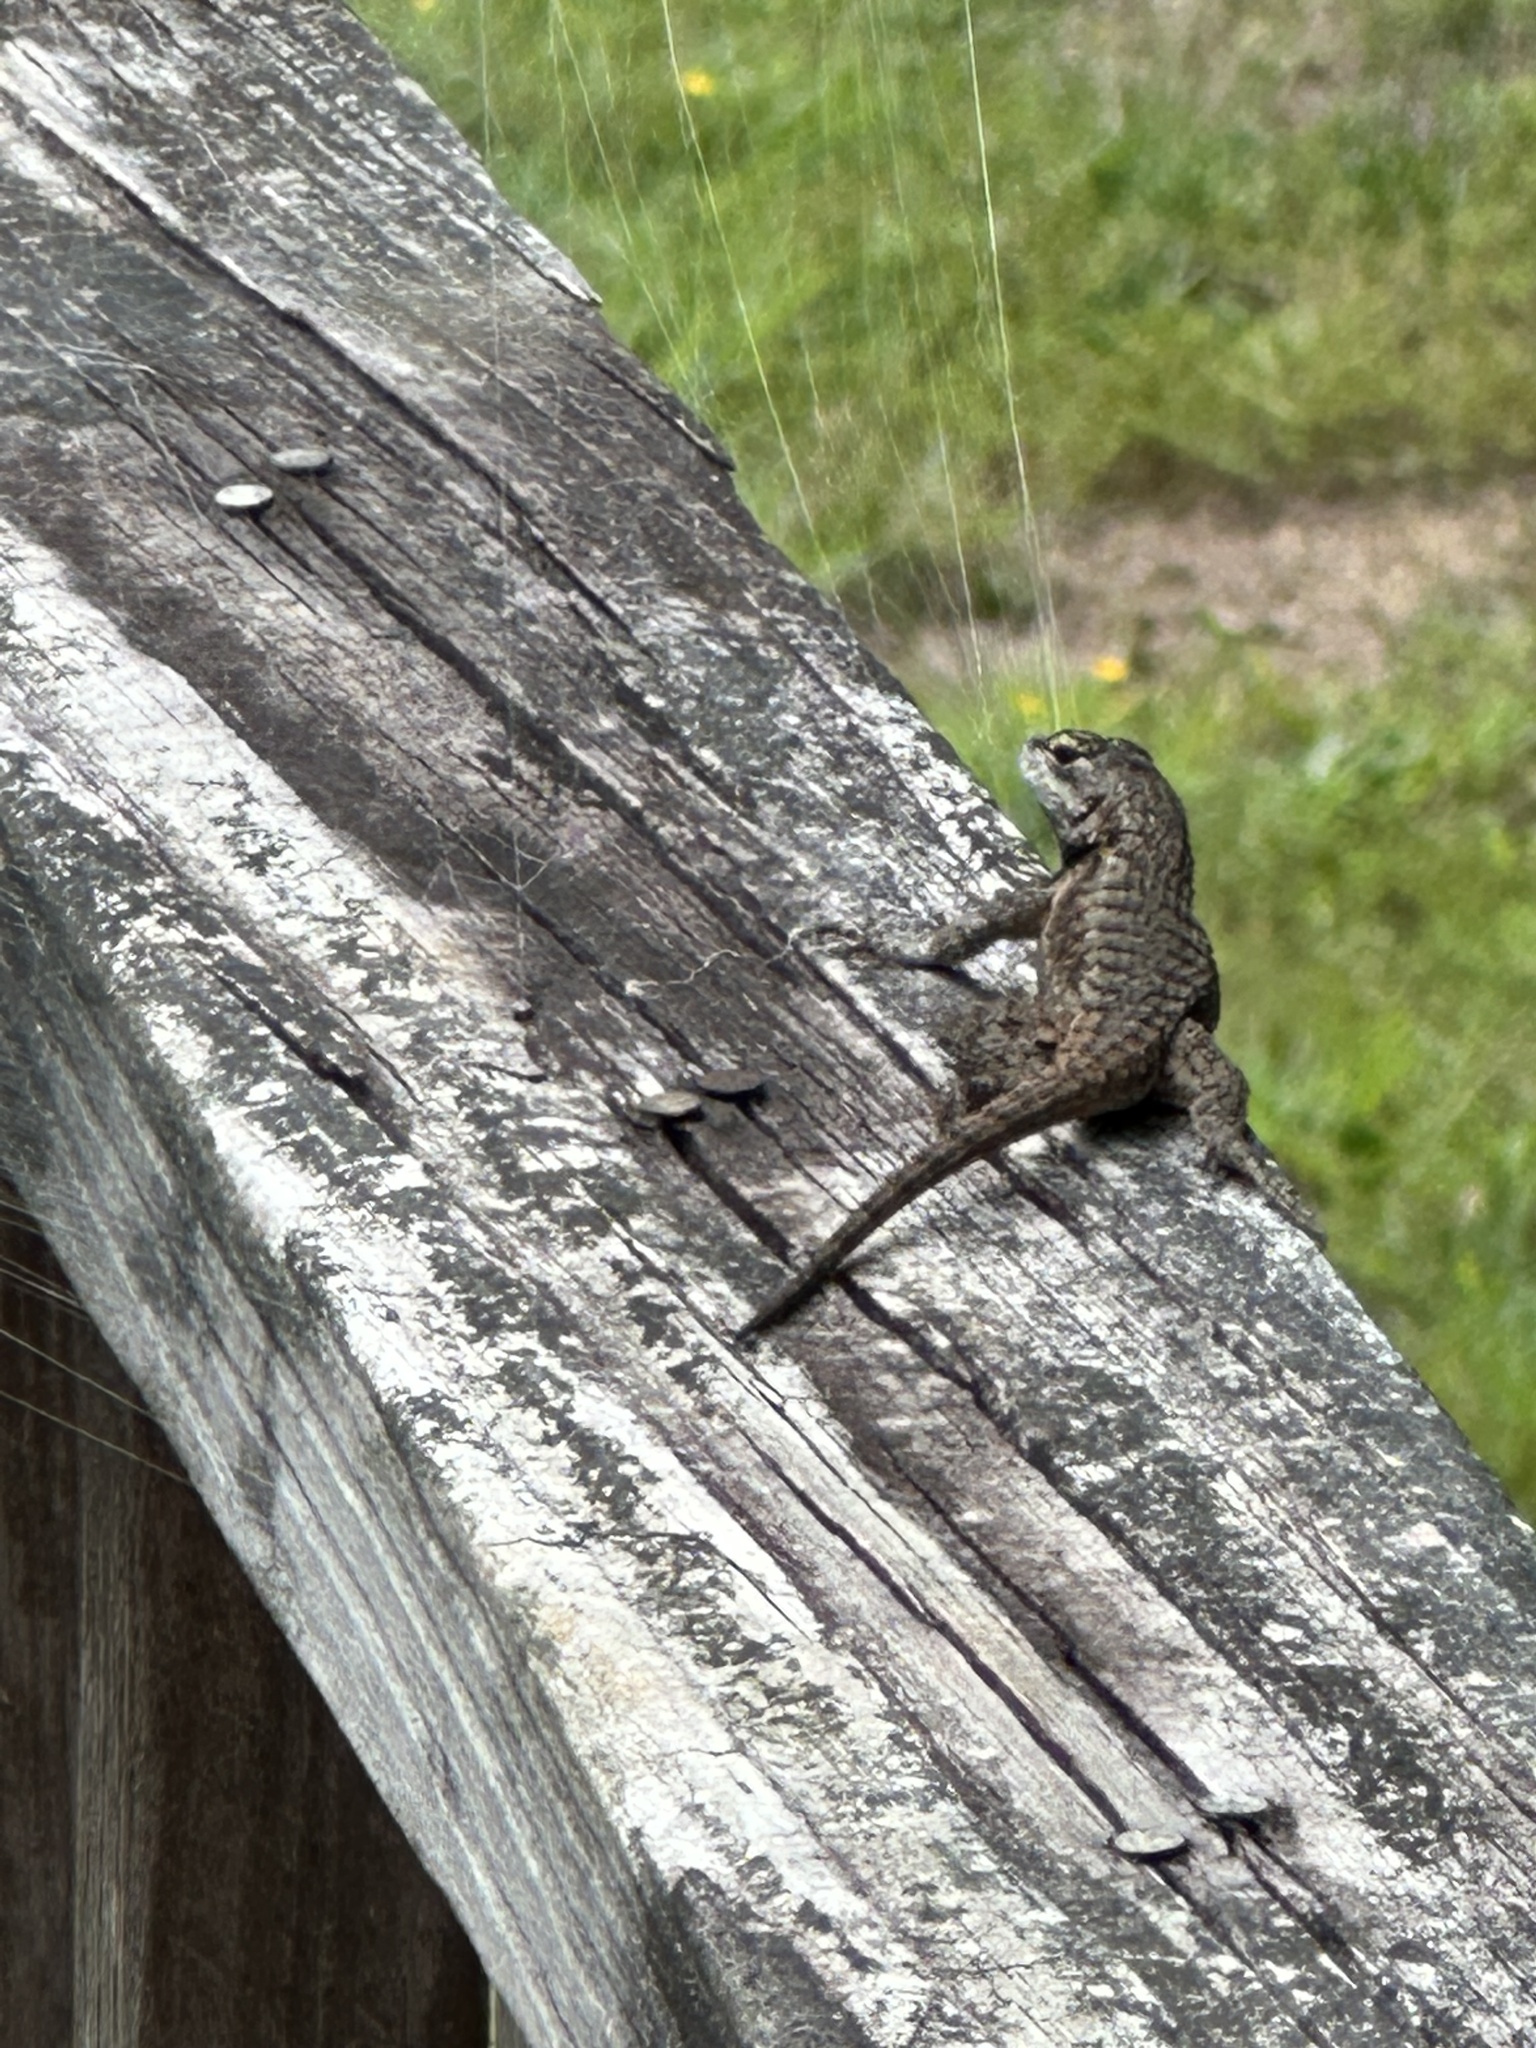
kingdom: Animalia
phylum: Chordata
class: Squamata
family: Phrynosomatidae
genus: Sceloporus
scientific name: Sceloporus undulatus
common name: Eastern fence lizard
